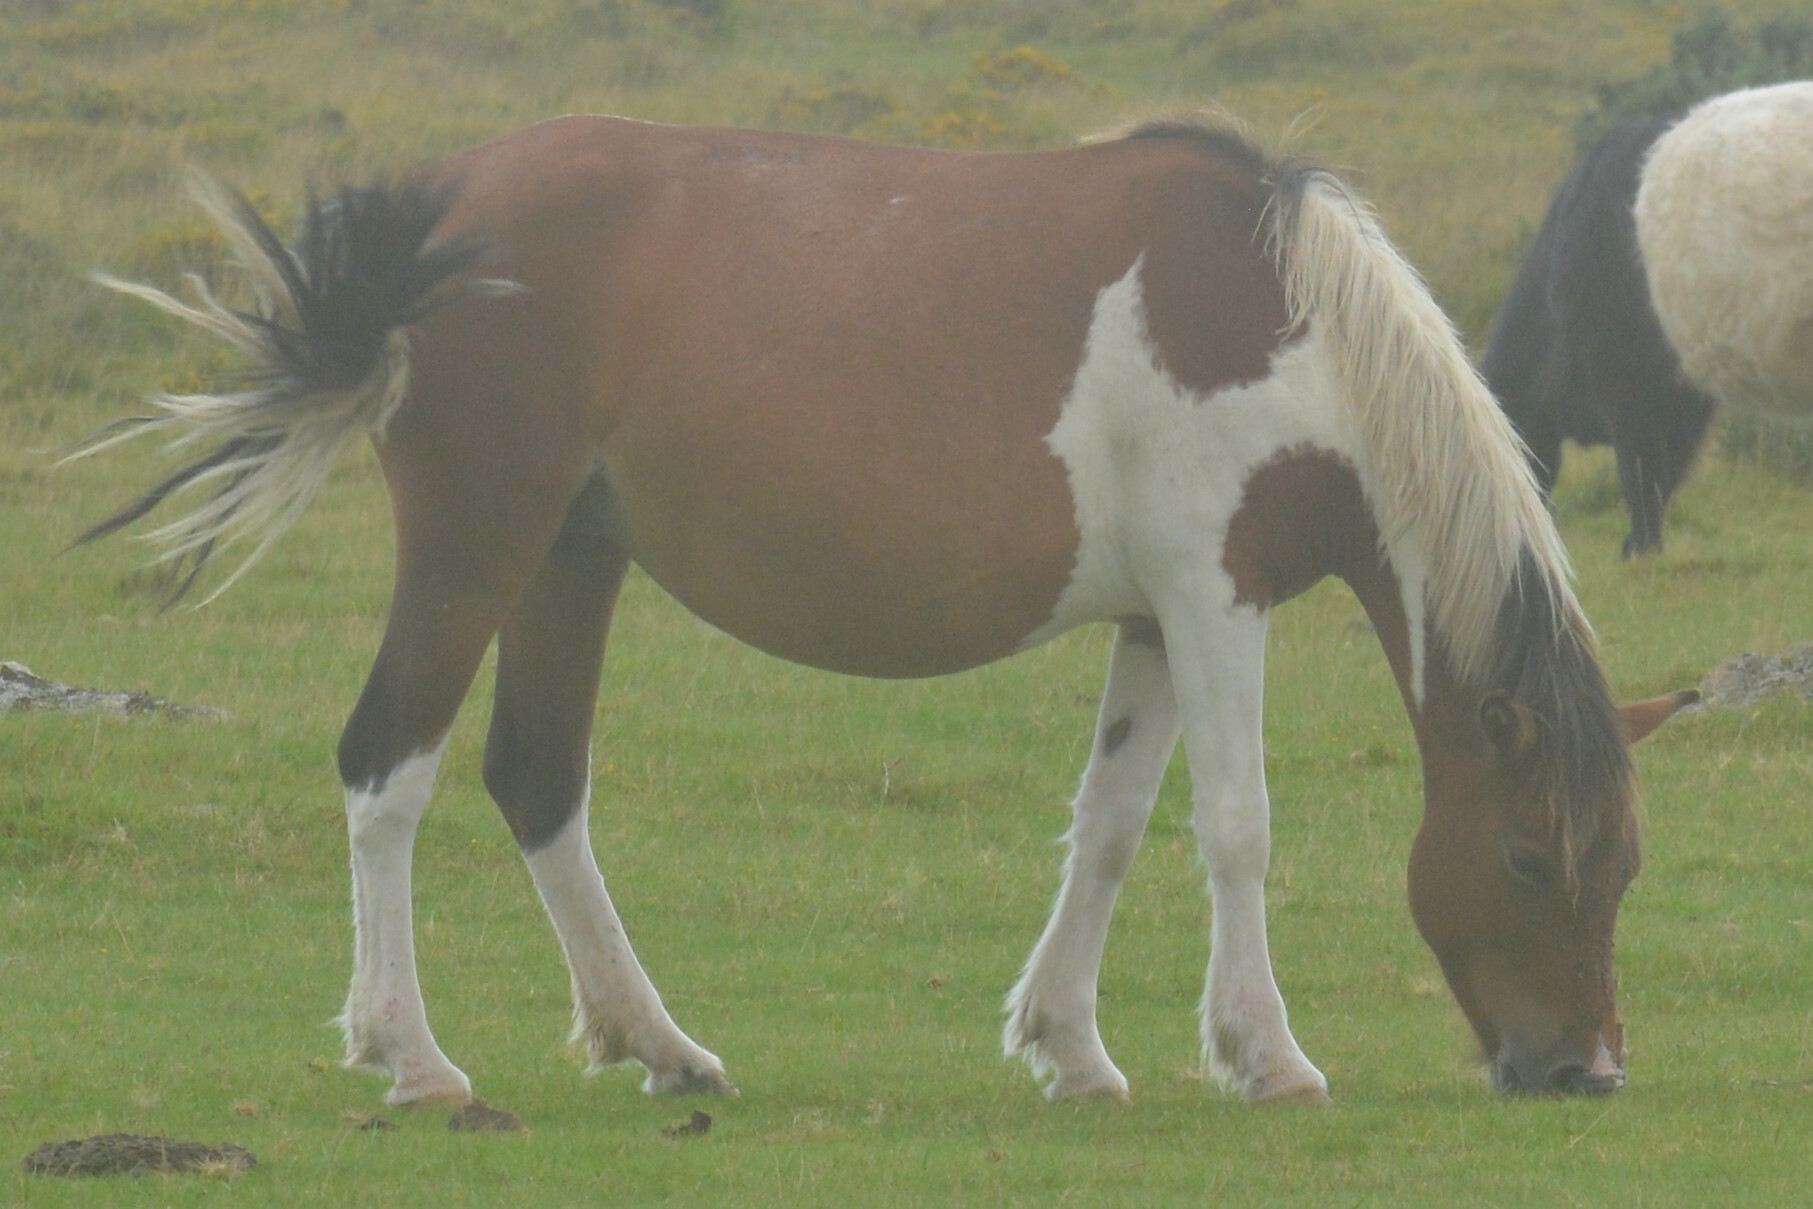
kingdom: Animalia
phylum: Chordata
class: Mammalia
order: Perissodactyla
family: Equidae
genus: Equus
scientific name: Equus caballus
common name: Horse
